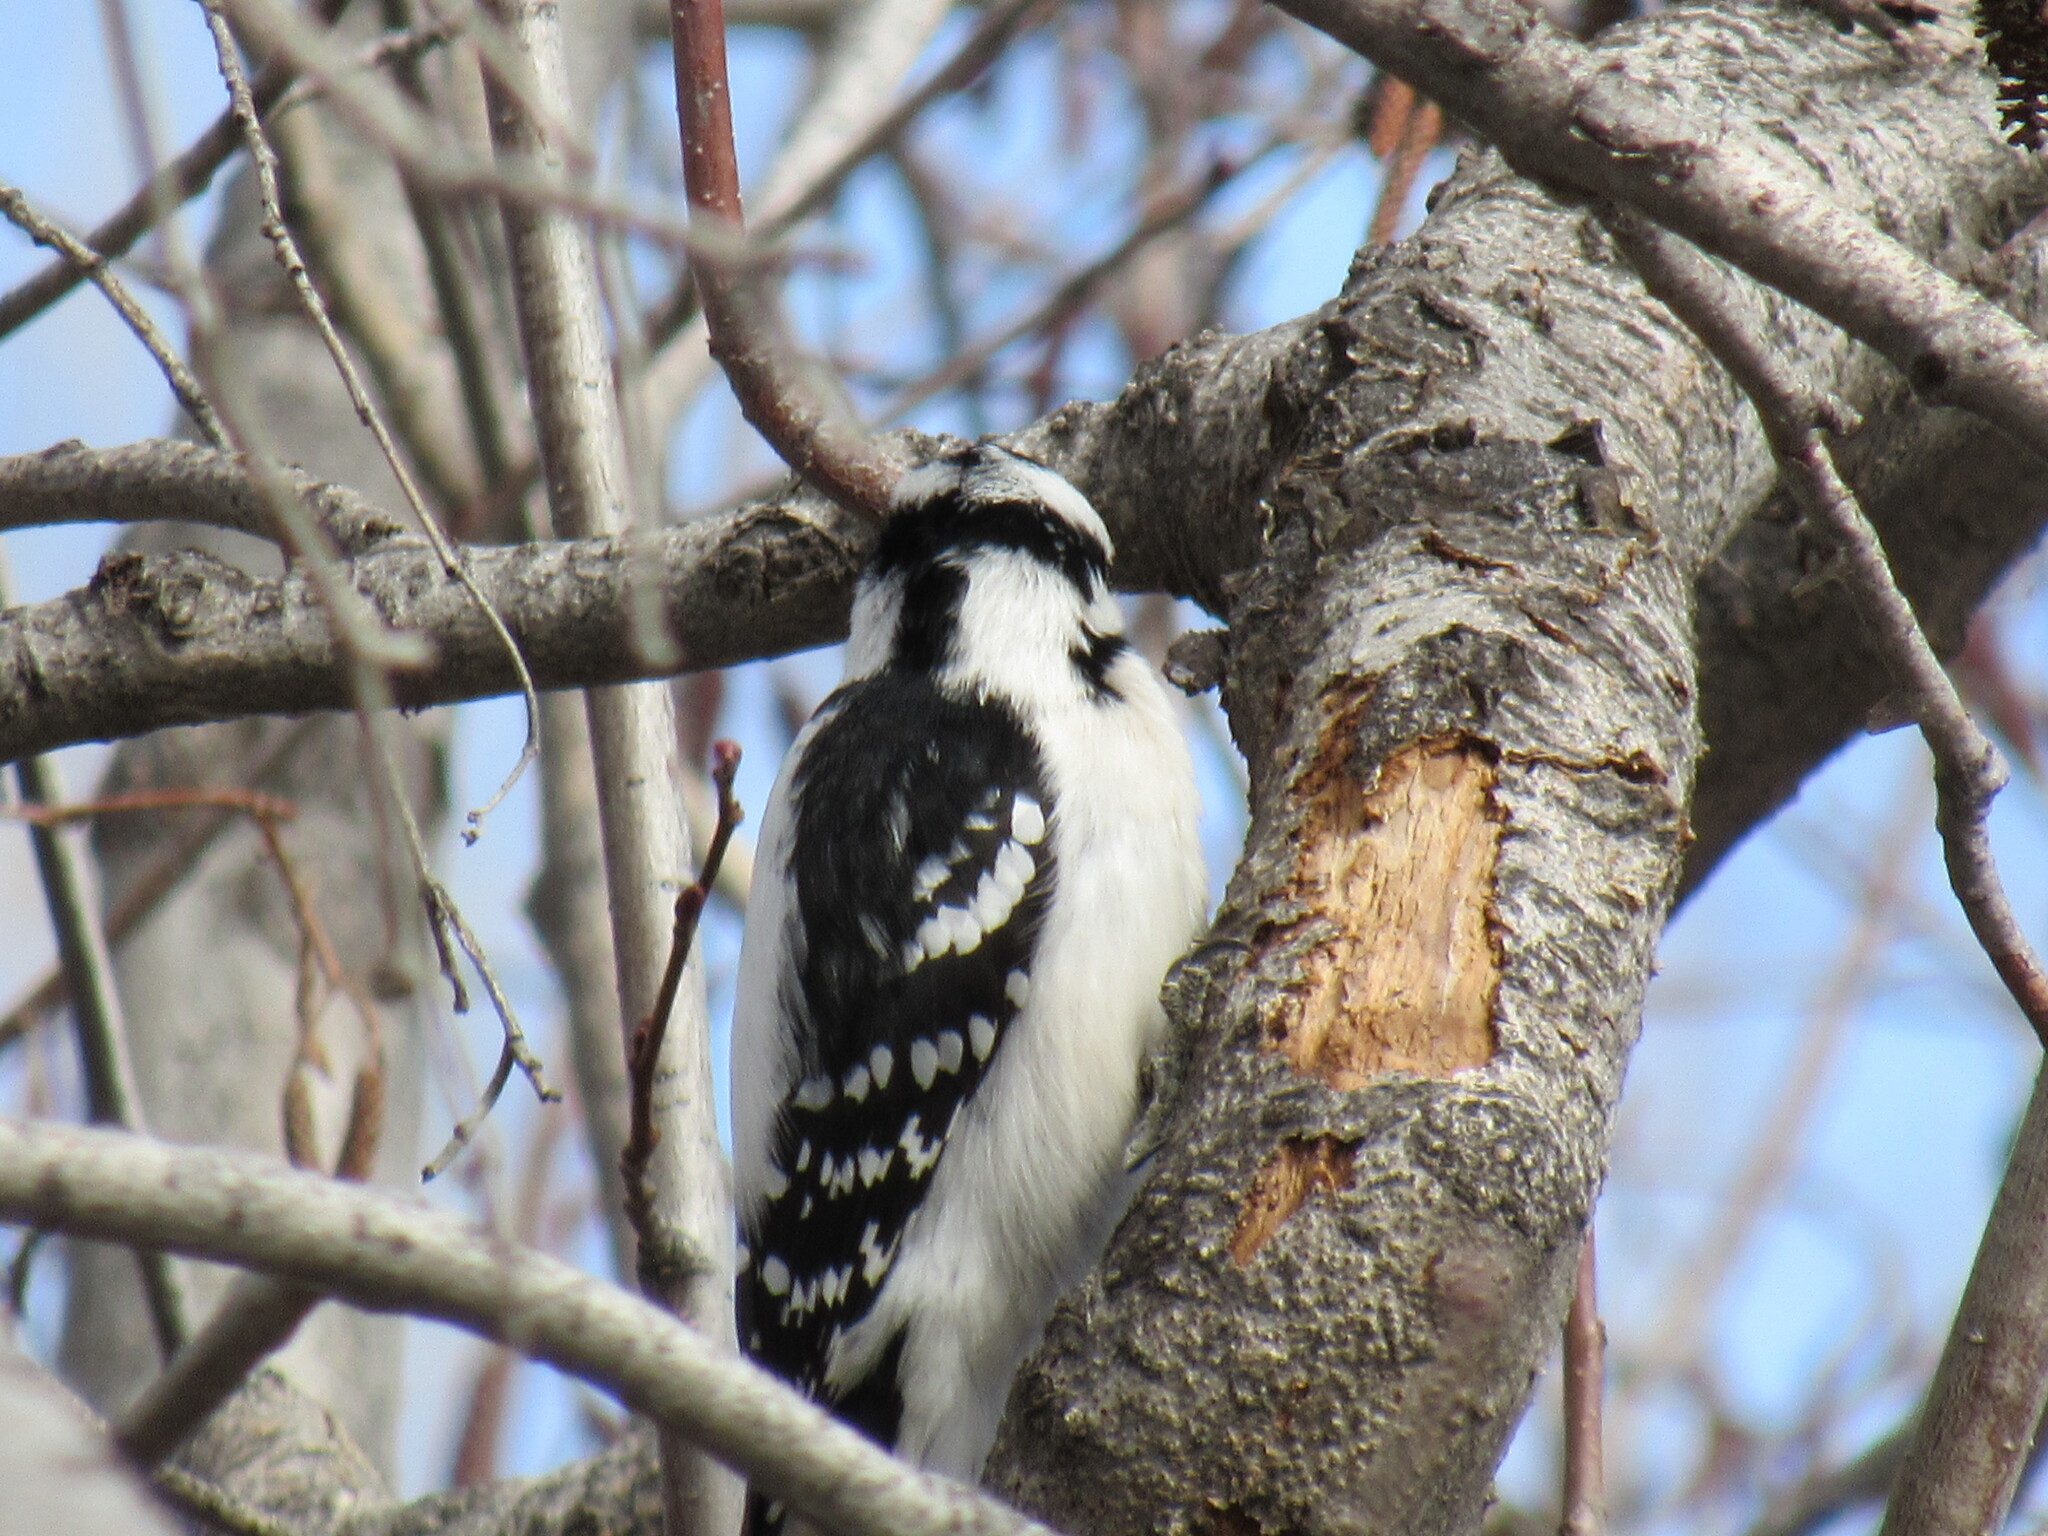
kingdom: Animalia
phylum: Chordata
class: Aves
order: Piciformes
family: Picidae
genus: Dryobates
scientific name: Dryobates pubescens
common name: Downy woodpecker
